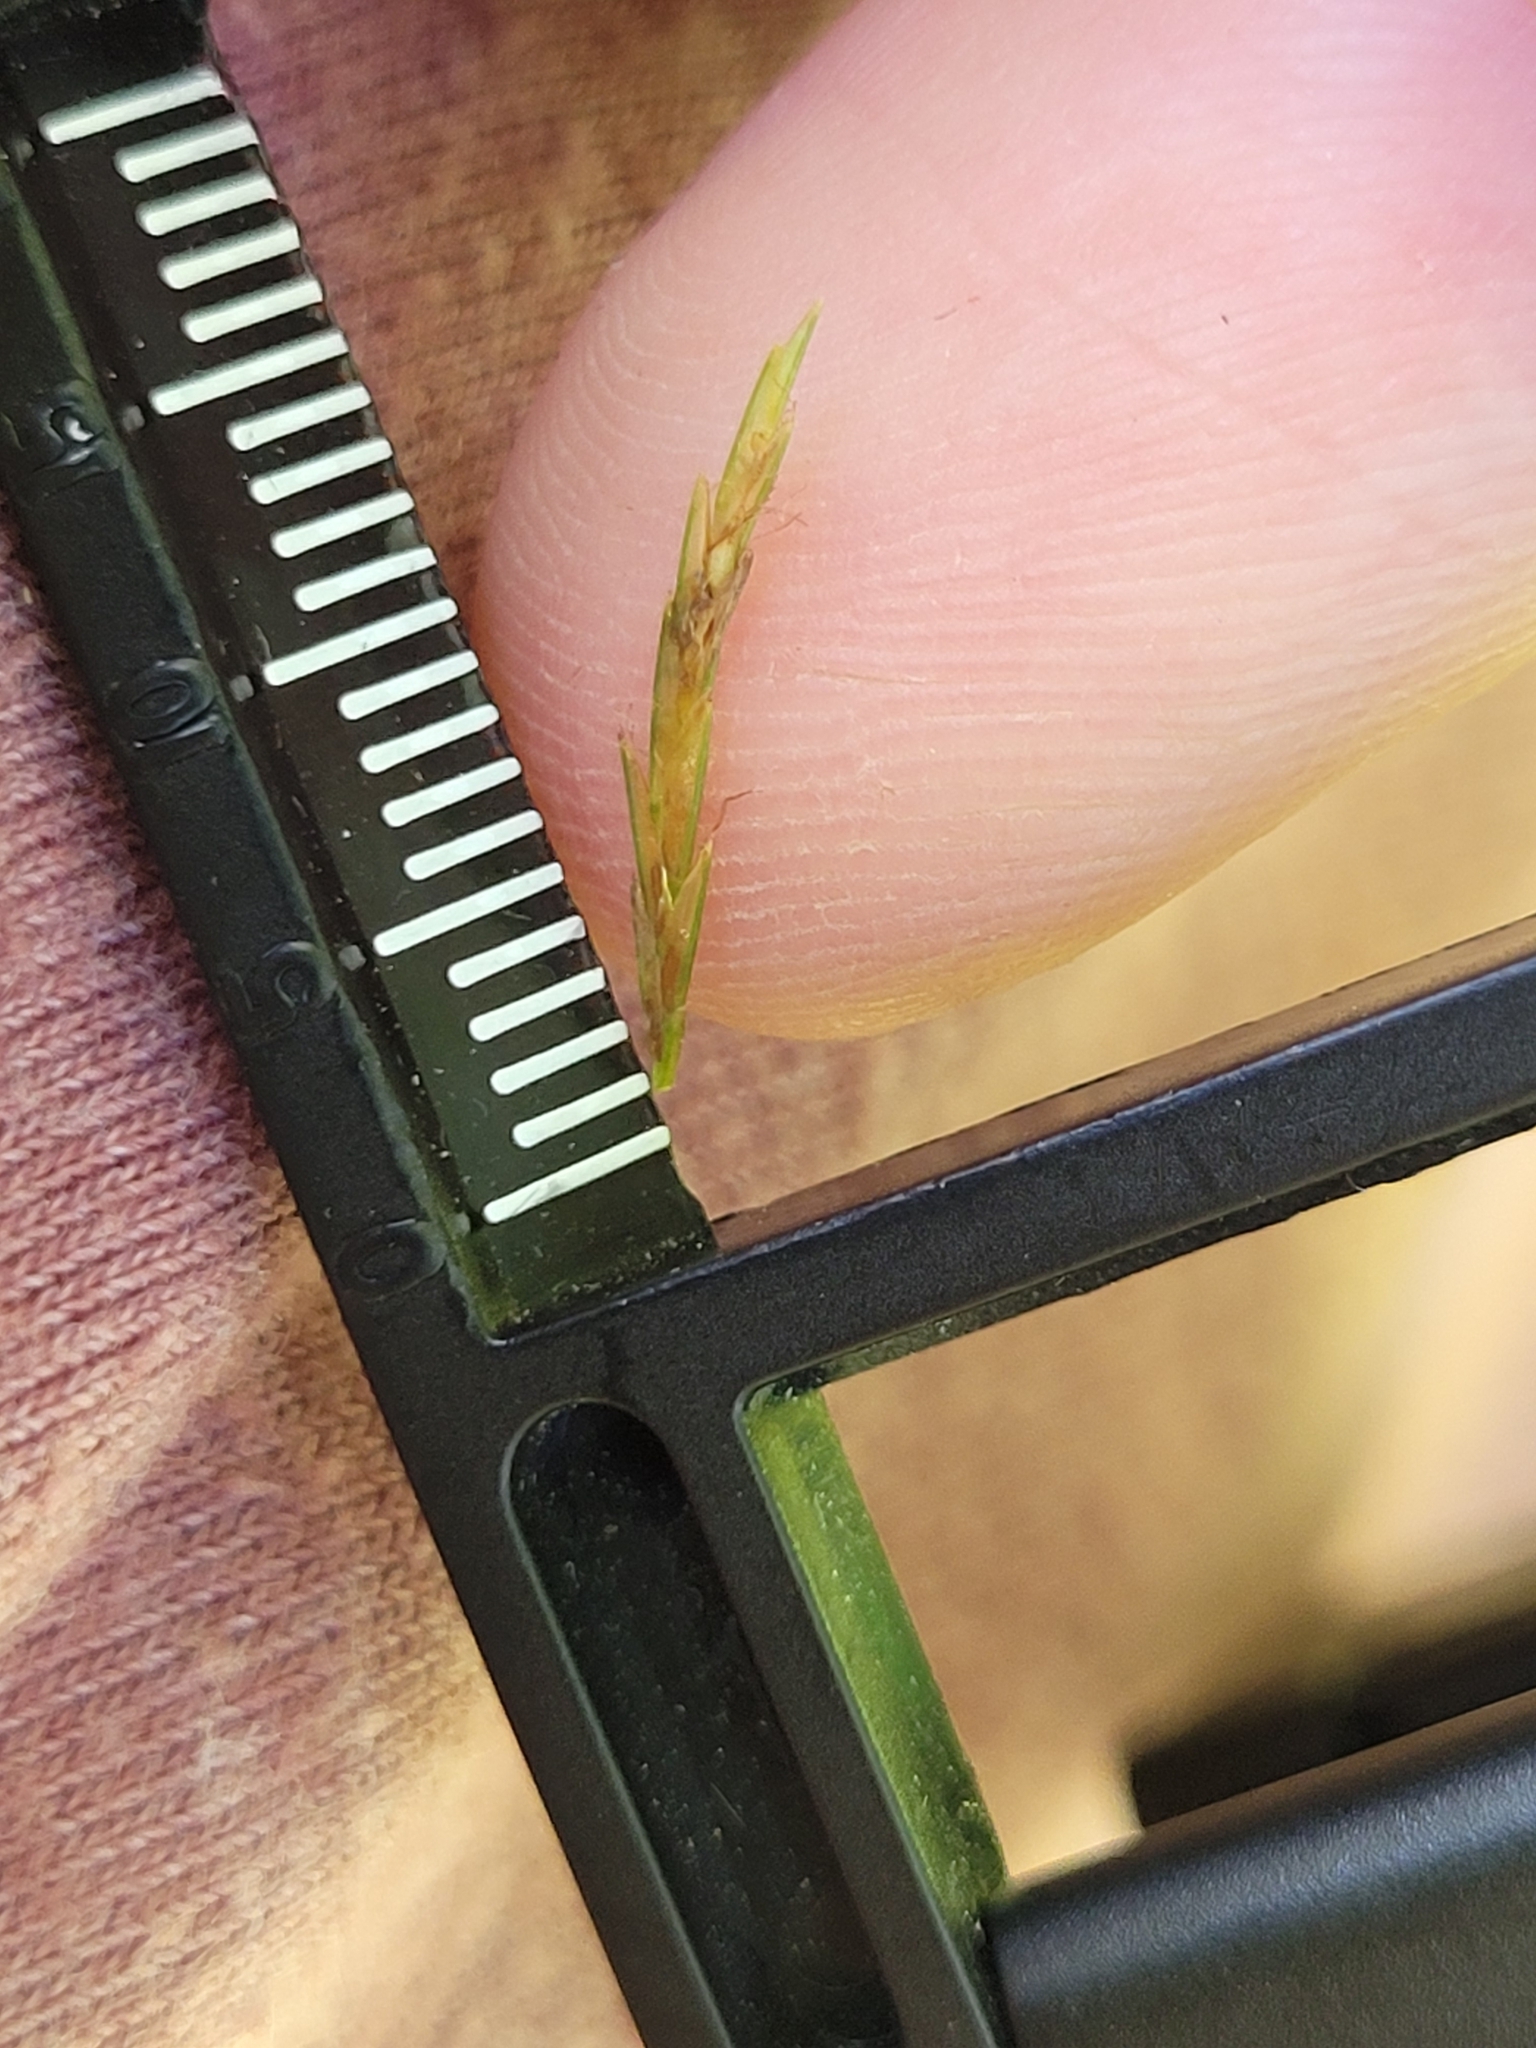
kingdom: Plantae
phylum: Tracheophyta
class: Liliopsida
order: Poales
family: Cyperaceae
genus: Cyperus
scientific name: Cyperus strigosus
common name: False nutsedge
